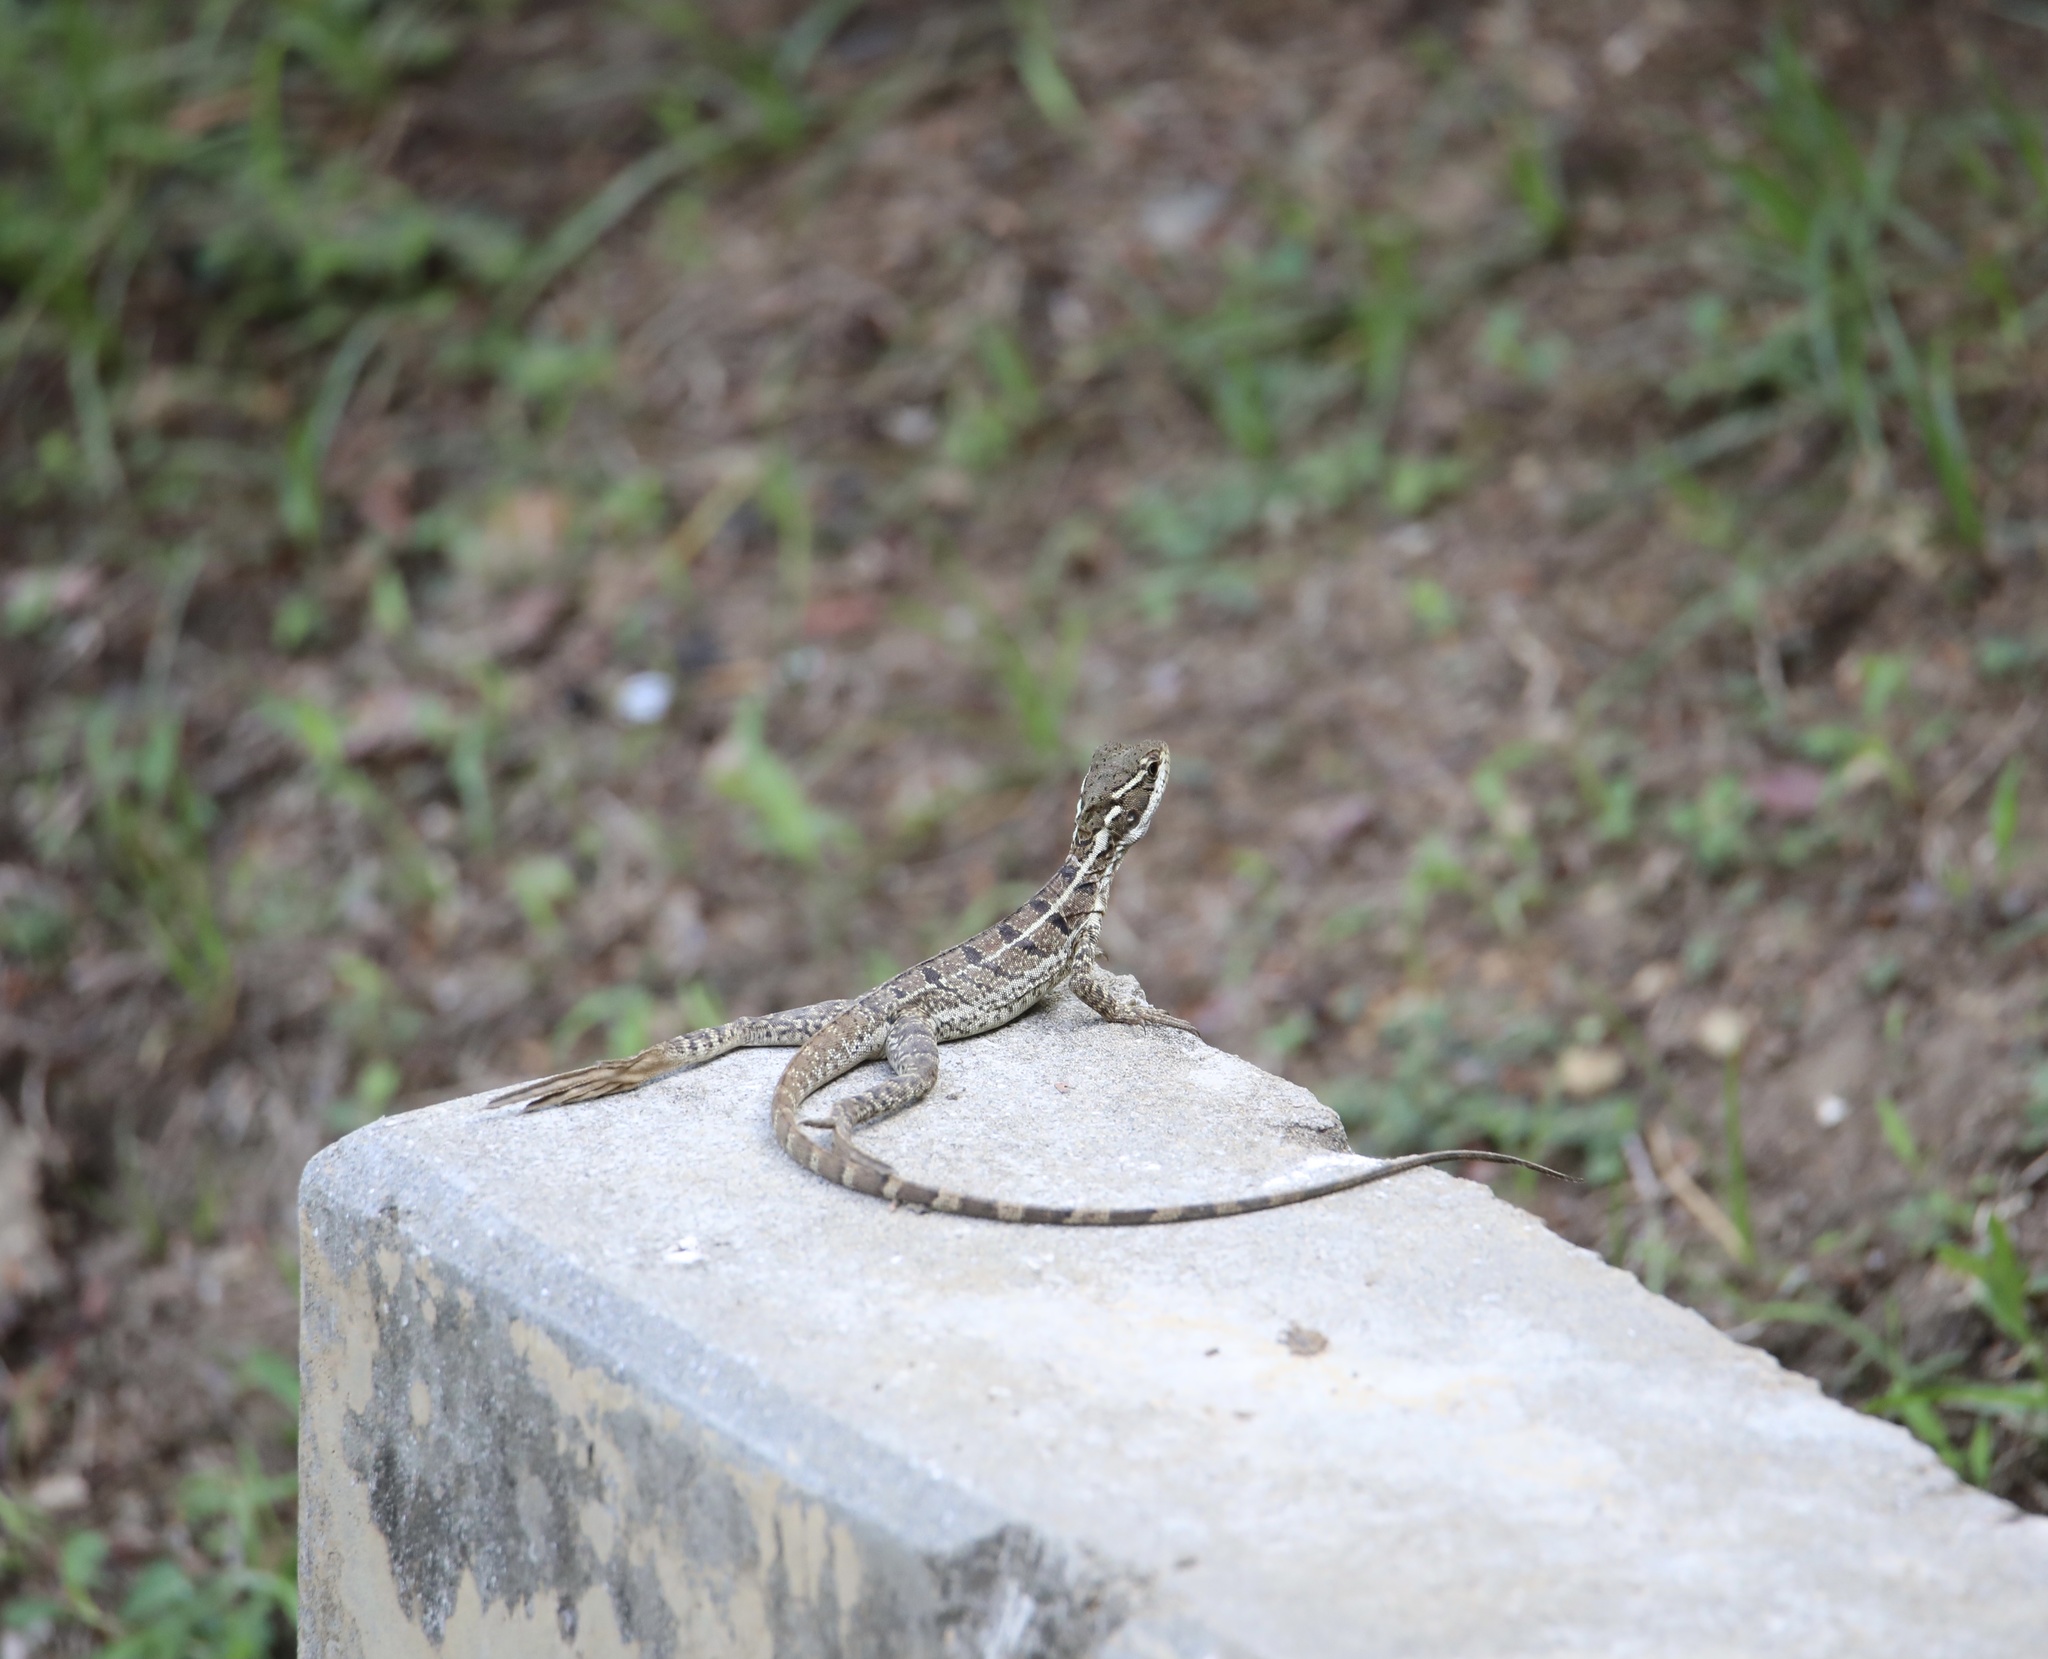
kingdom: Animalia
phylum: Chordata
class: Squamata
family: Corytophanidae
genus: Basiliscus
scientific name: Basiliscus basiliscus
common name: Common basilisk
